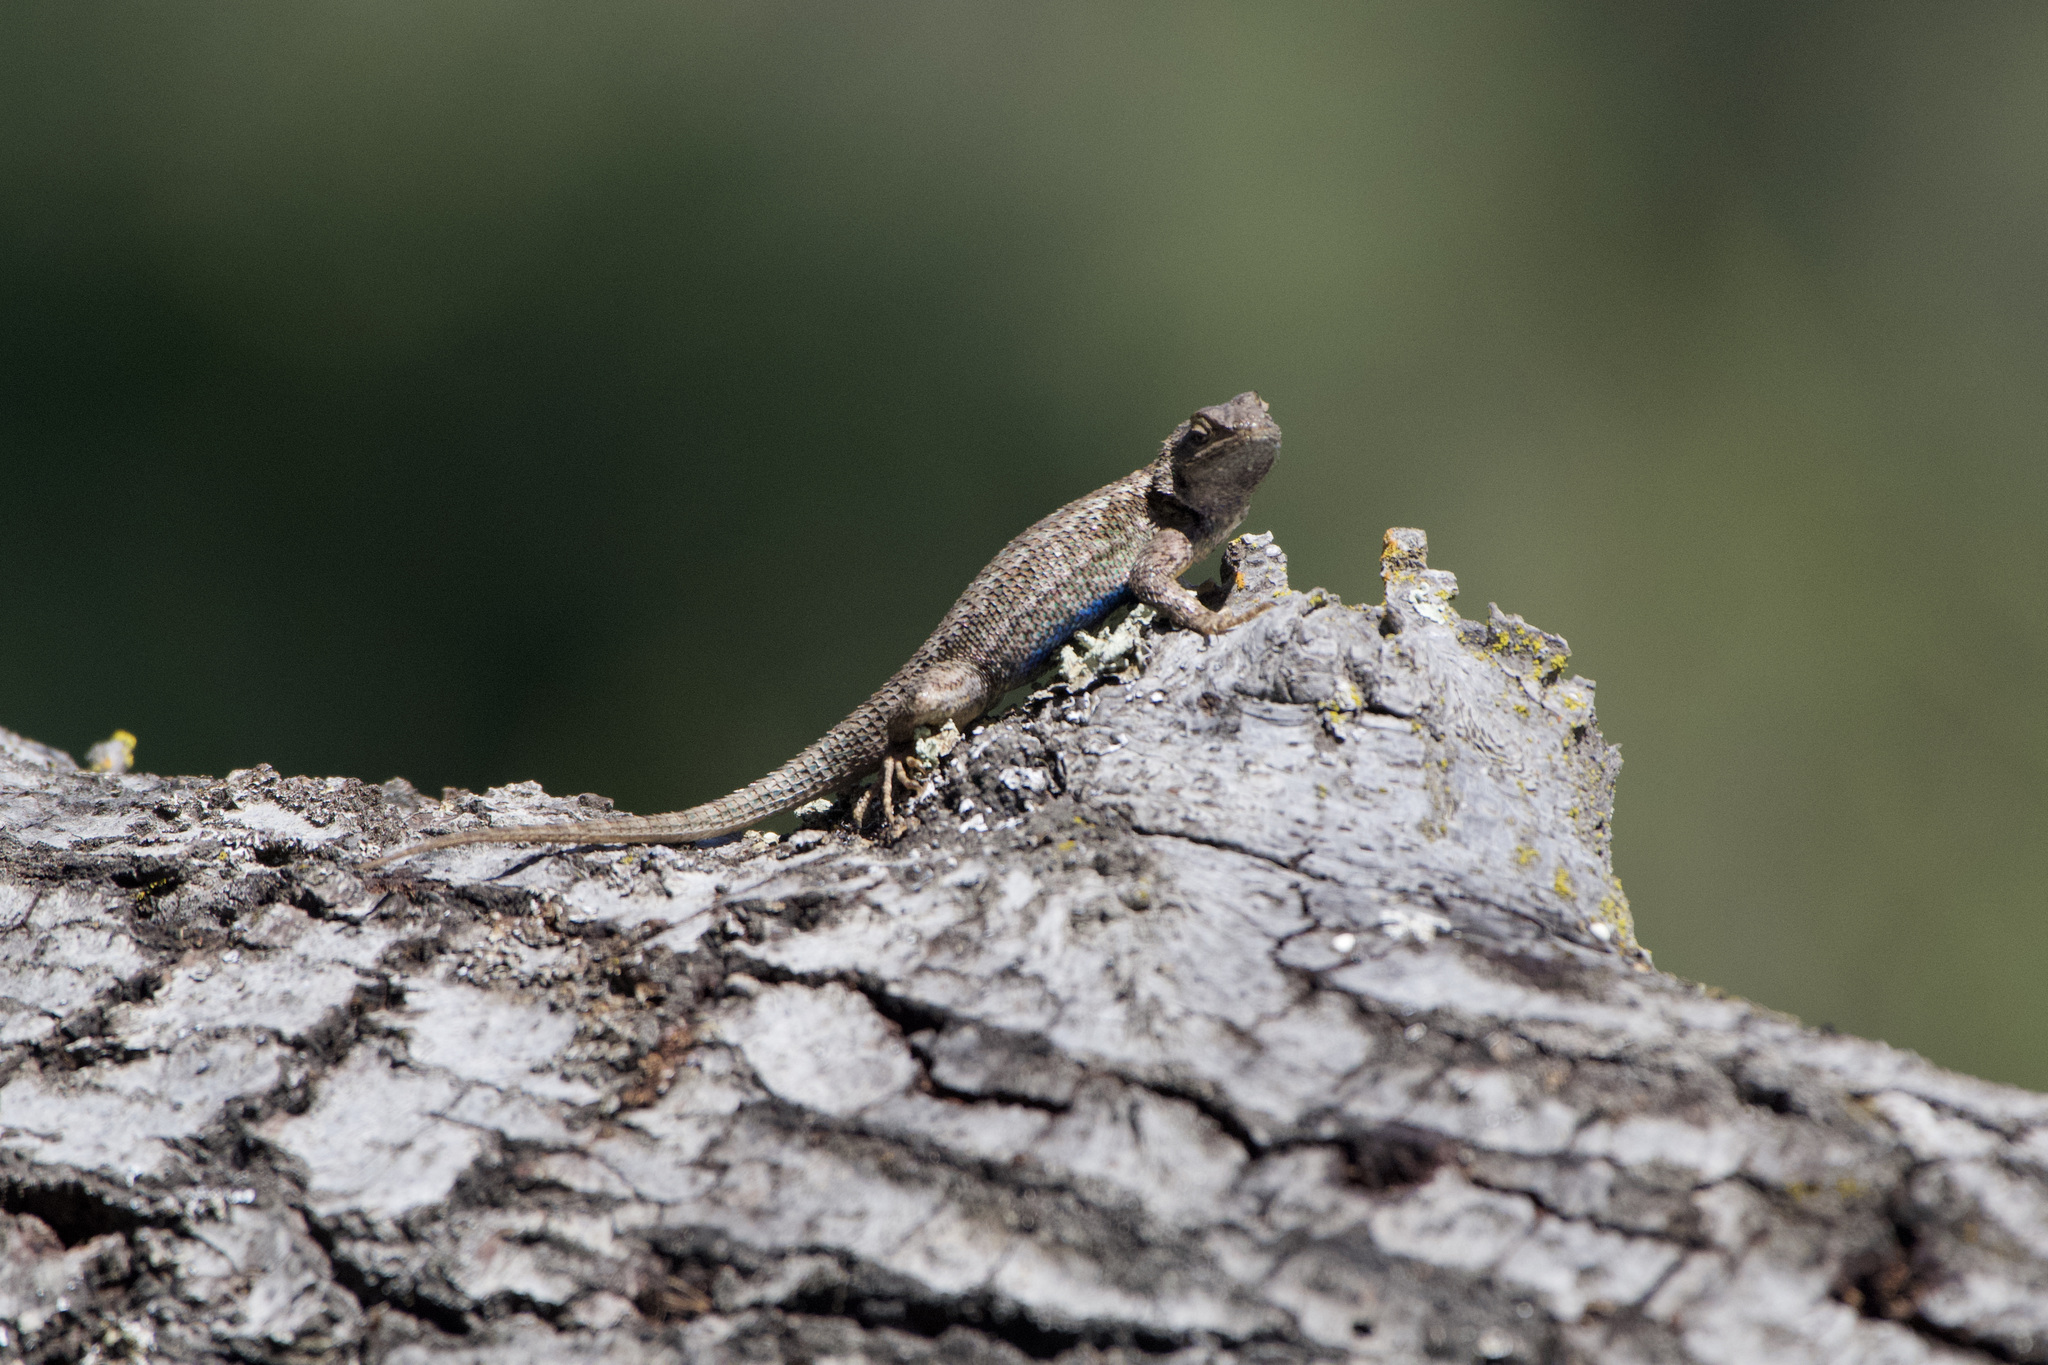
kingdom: Animalia
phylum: Chordata
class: Squamata
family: Phrynosomatidae
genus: Sceloporus
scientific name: Sceloporus occidentalis
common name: Western fence lizard
